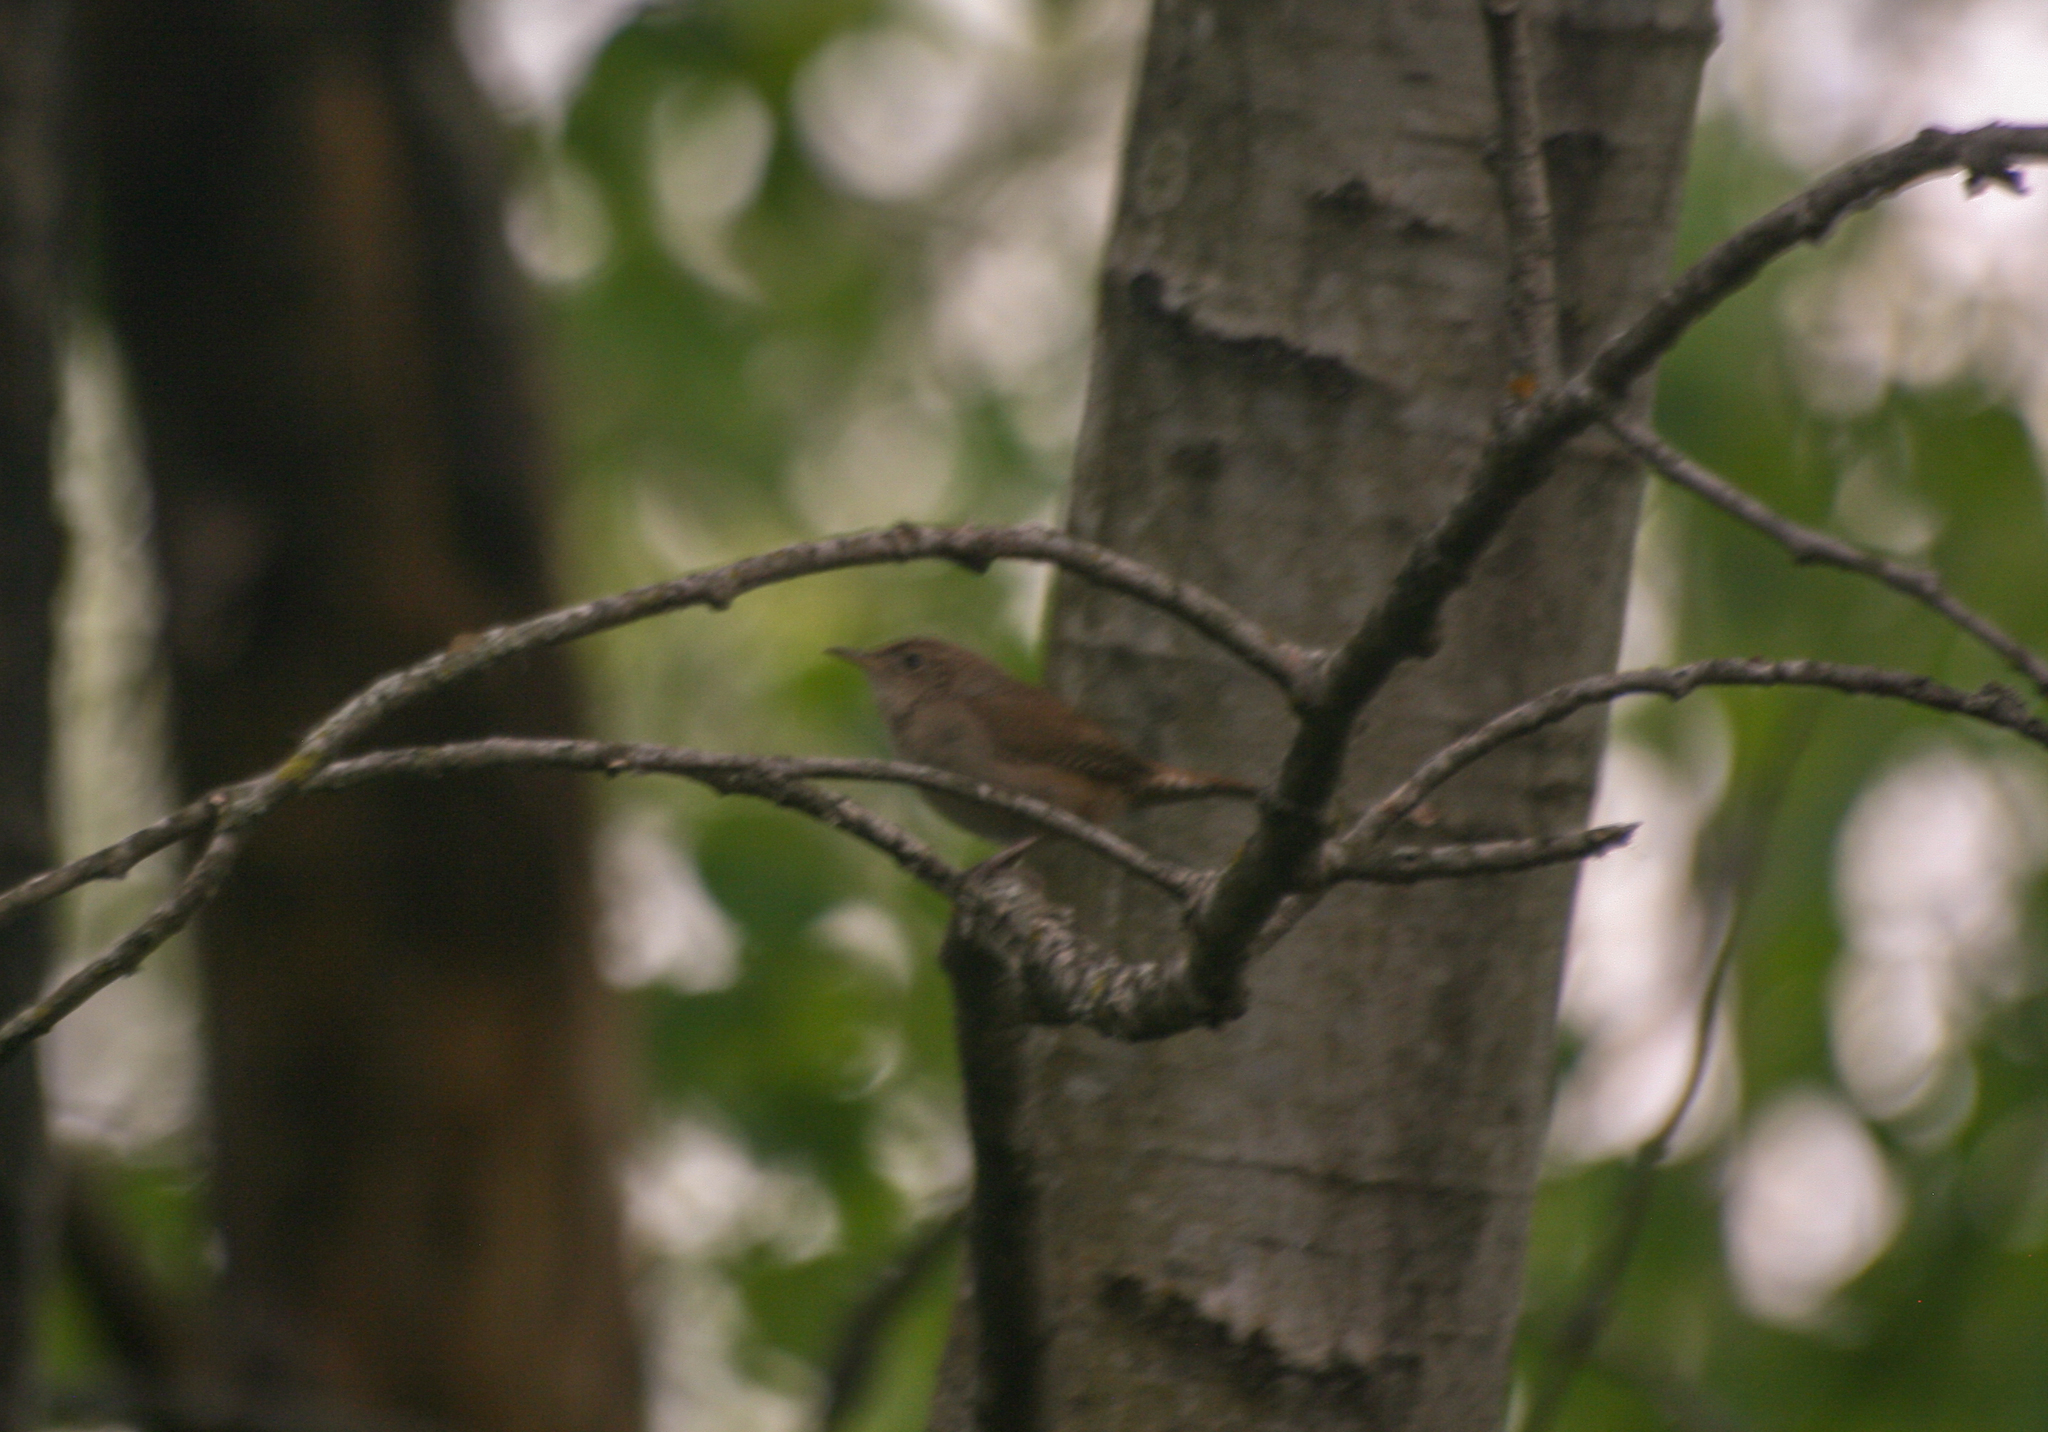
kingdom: Animalia
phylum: Chordata
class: Aves
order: Passeriformes
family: Troglodytidae
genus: Troglodytes
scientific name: Troglodytes aedon
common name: House wren
